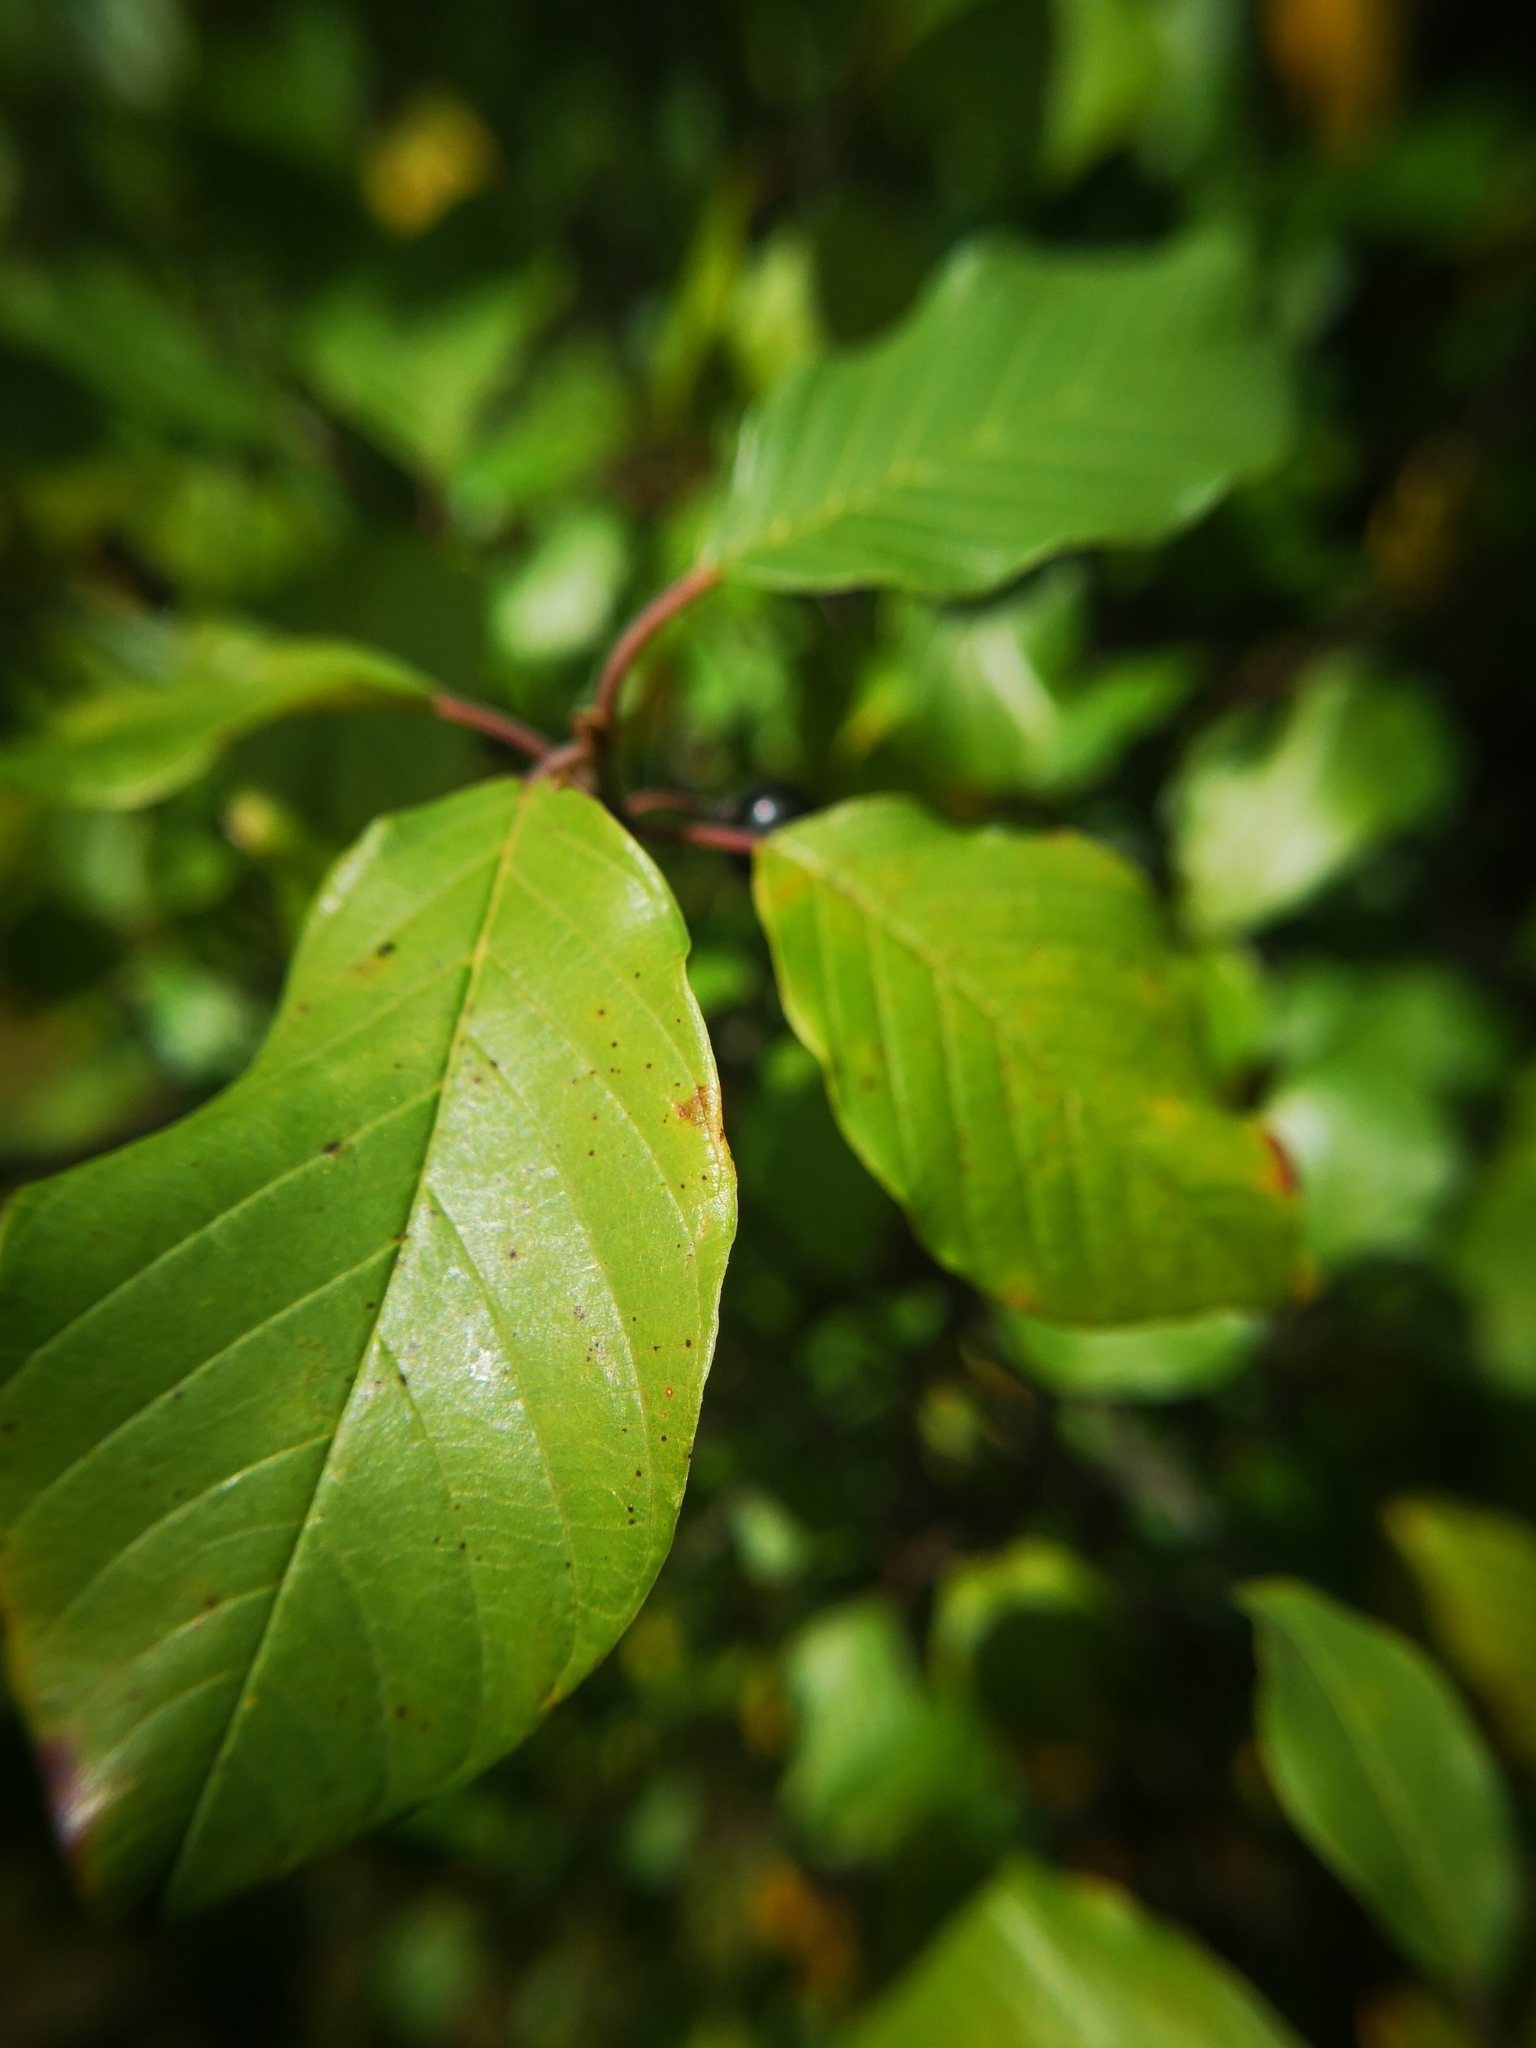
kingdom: Plantae
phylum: Tracheophyta
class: Magnoliopsida
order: Rosales
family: Rhamnaceae
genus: Frangula
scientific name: Frangula alnus
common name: Alder buckthorn
